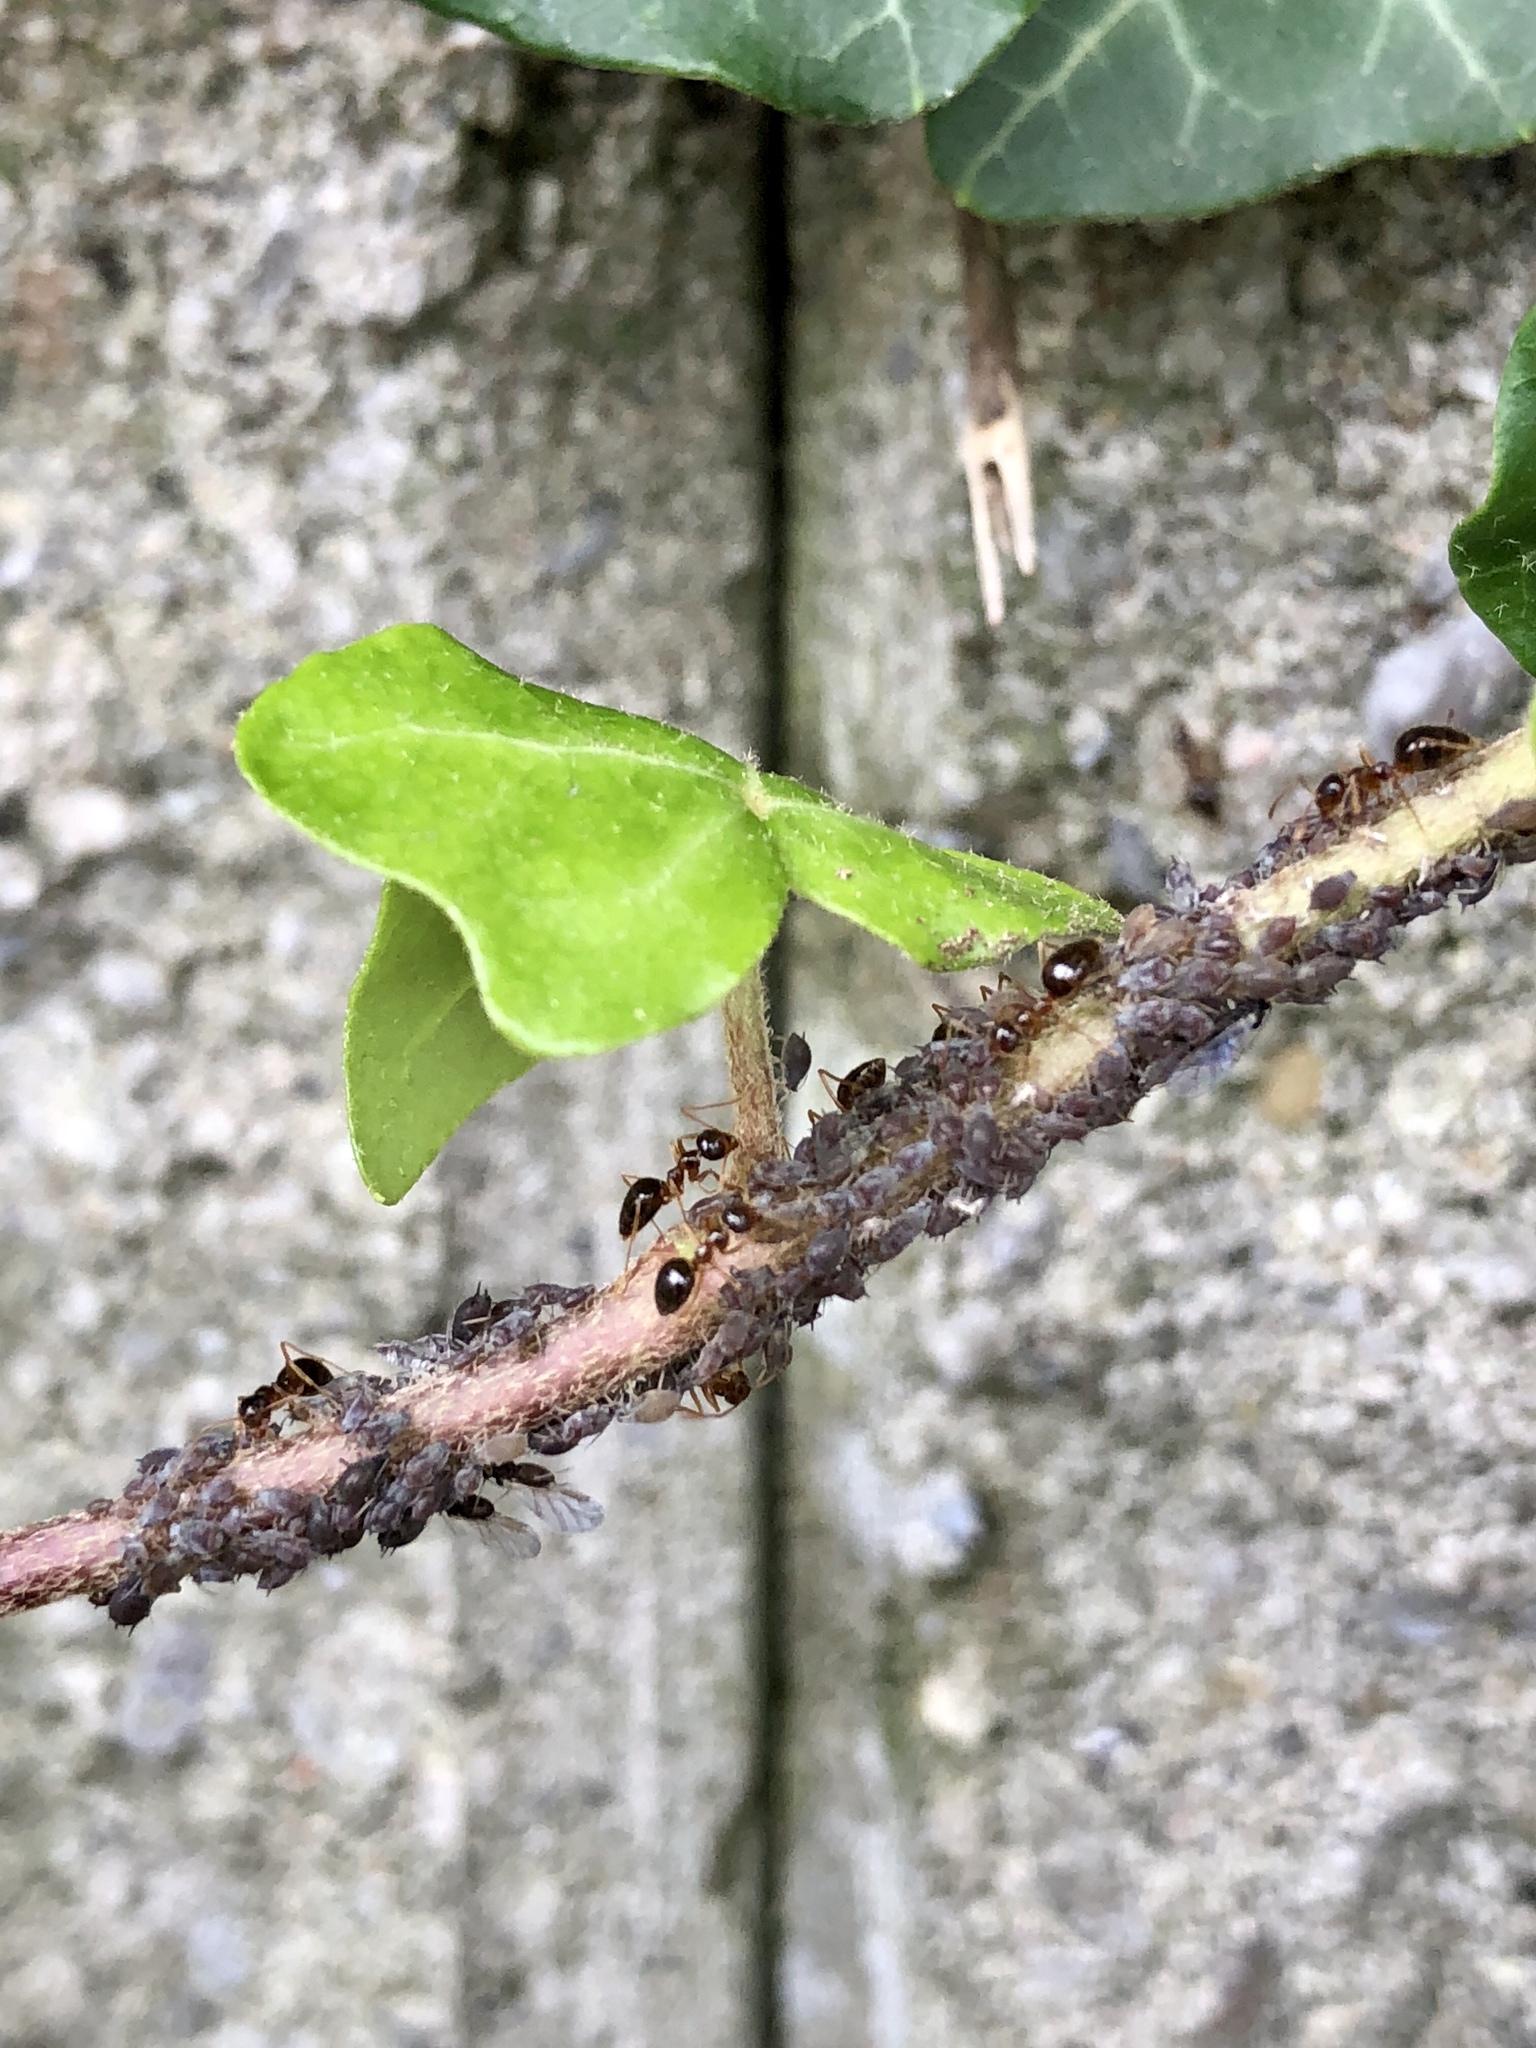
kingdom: Animalia
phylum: Arthropoda
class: Insecta
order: Hymenoptera
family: Formicidae
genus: Prenolepis
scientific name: Prenolepis imparis
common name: Small honey ant
